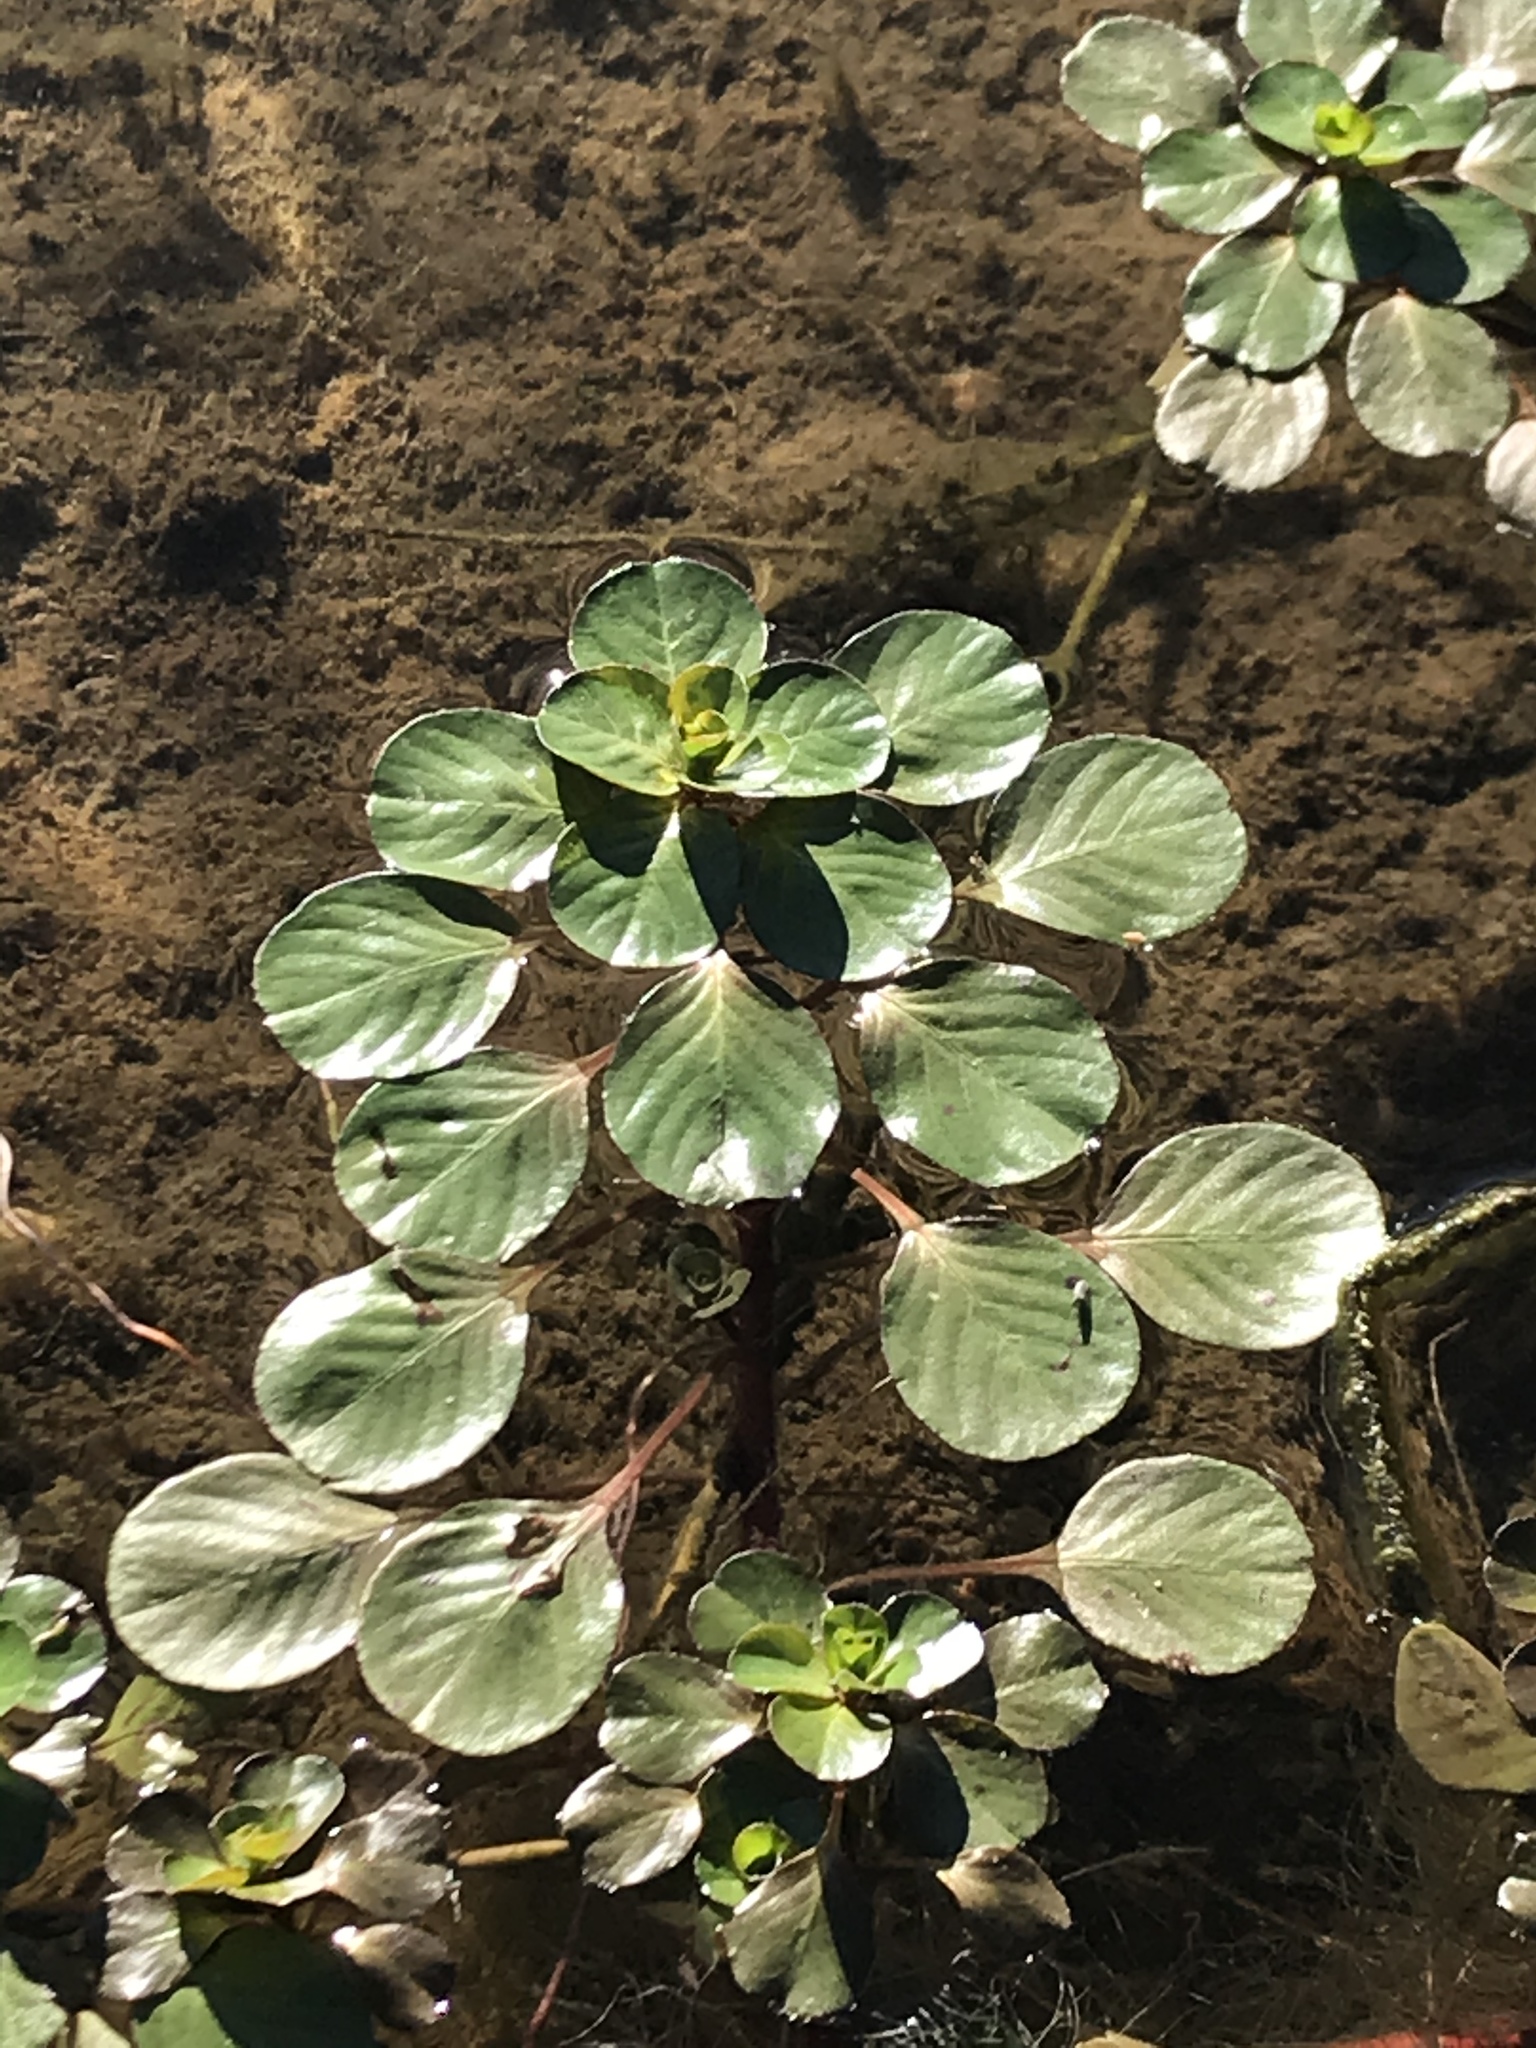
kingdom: Plantae
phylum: Tracheophyta
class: Magnoliopsida
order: Myrtales
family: Onagraceae
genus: Ludwigia
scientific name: Ludwigia peploides
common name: Floating primrose-willow
